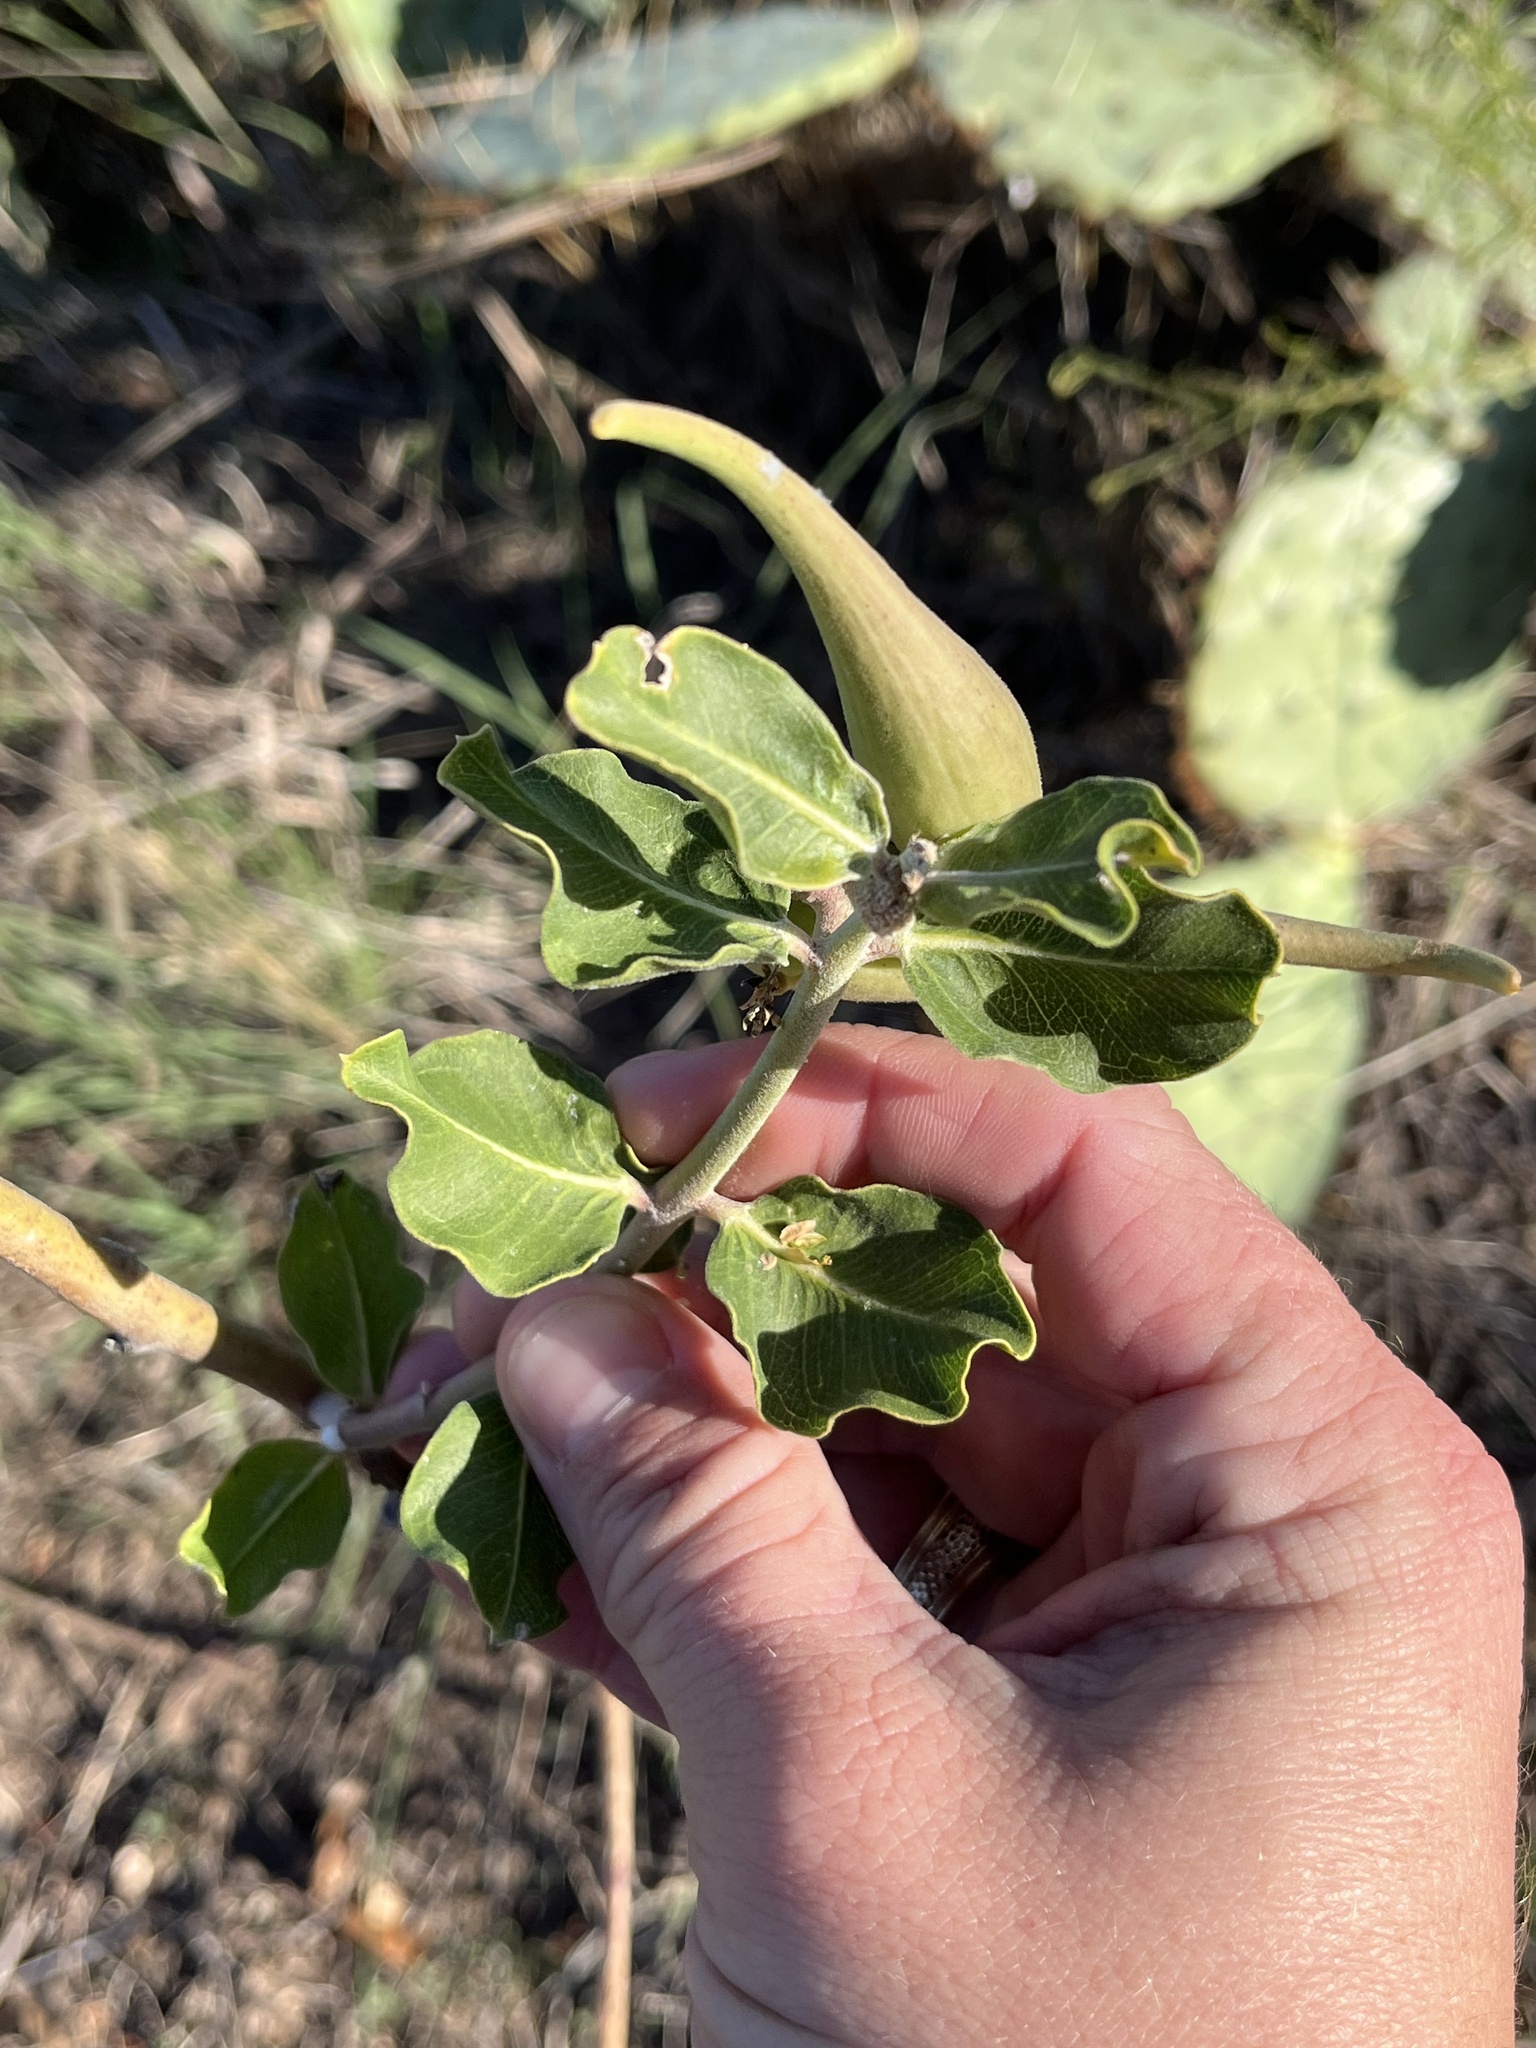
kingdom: Plantae
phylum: Tracheophyta
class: Magnoliopsida
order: Gentianales
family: Apocynaceae
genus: Asclepias
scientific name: Asclepias viridiflora
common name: Green comet milkweed
